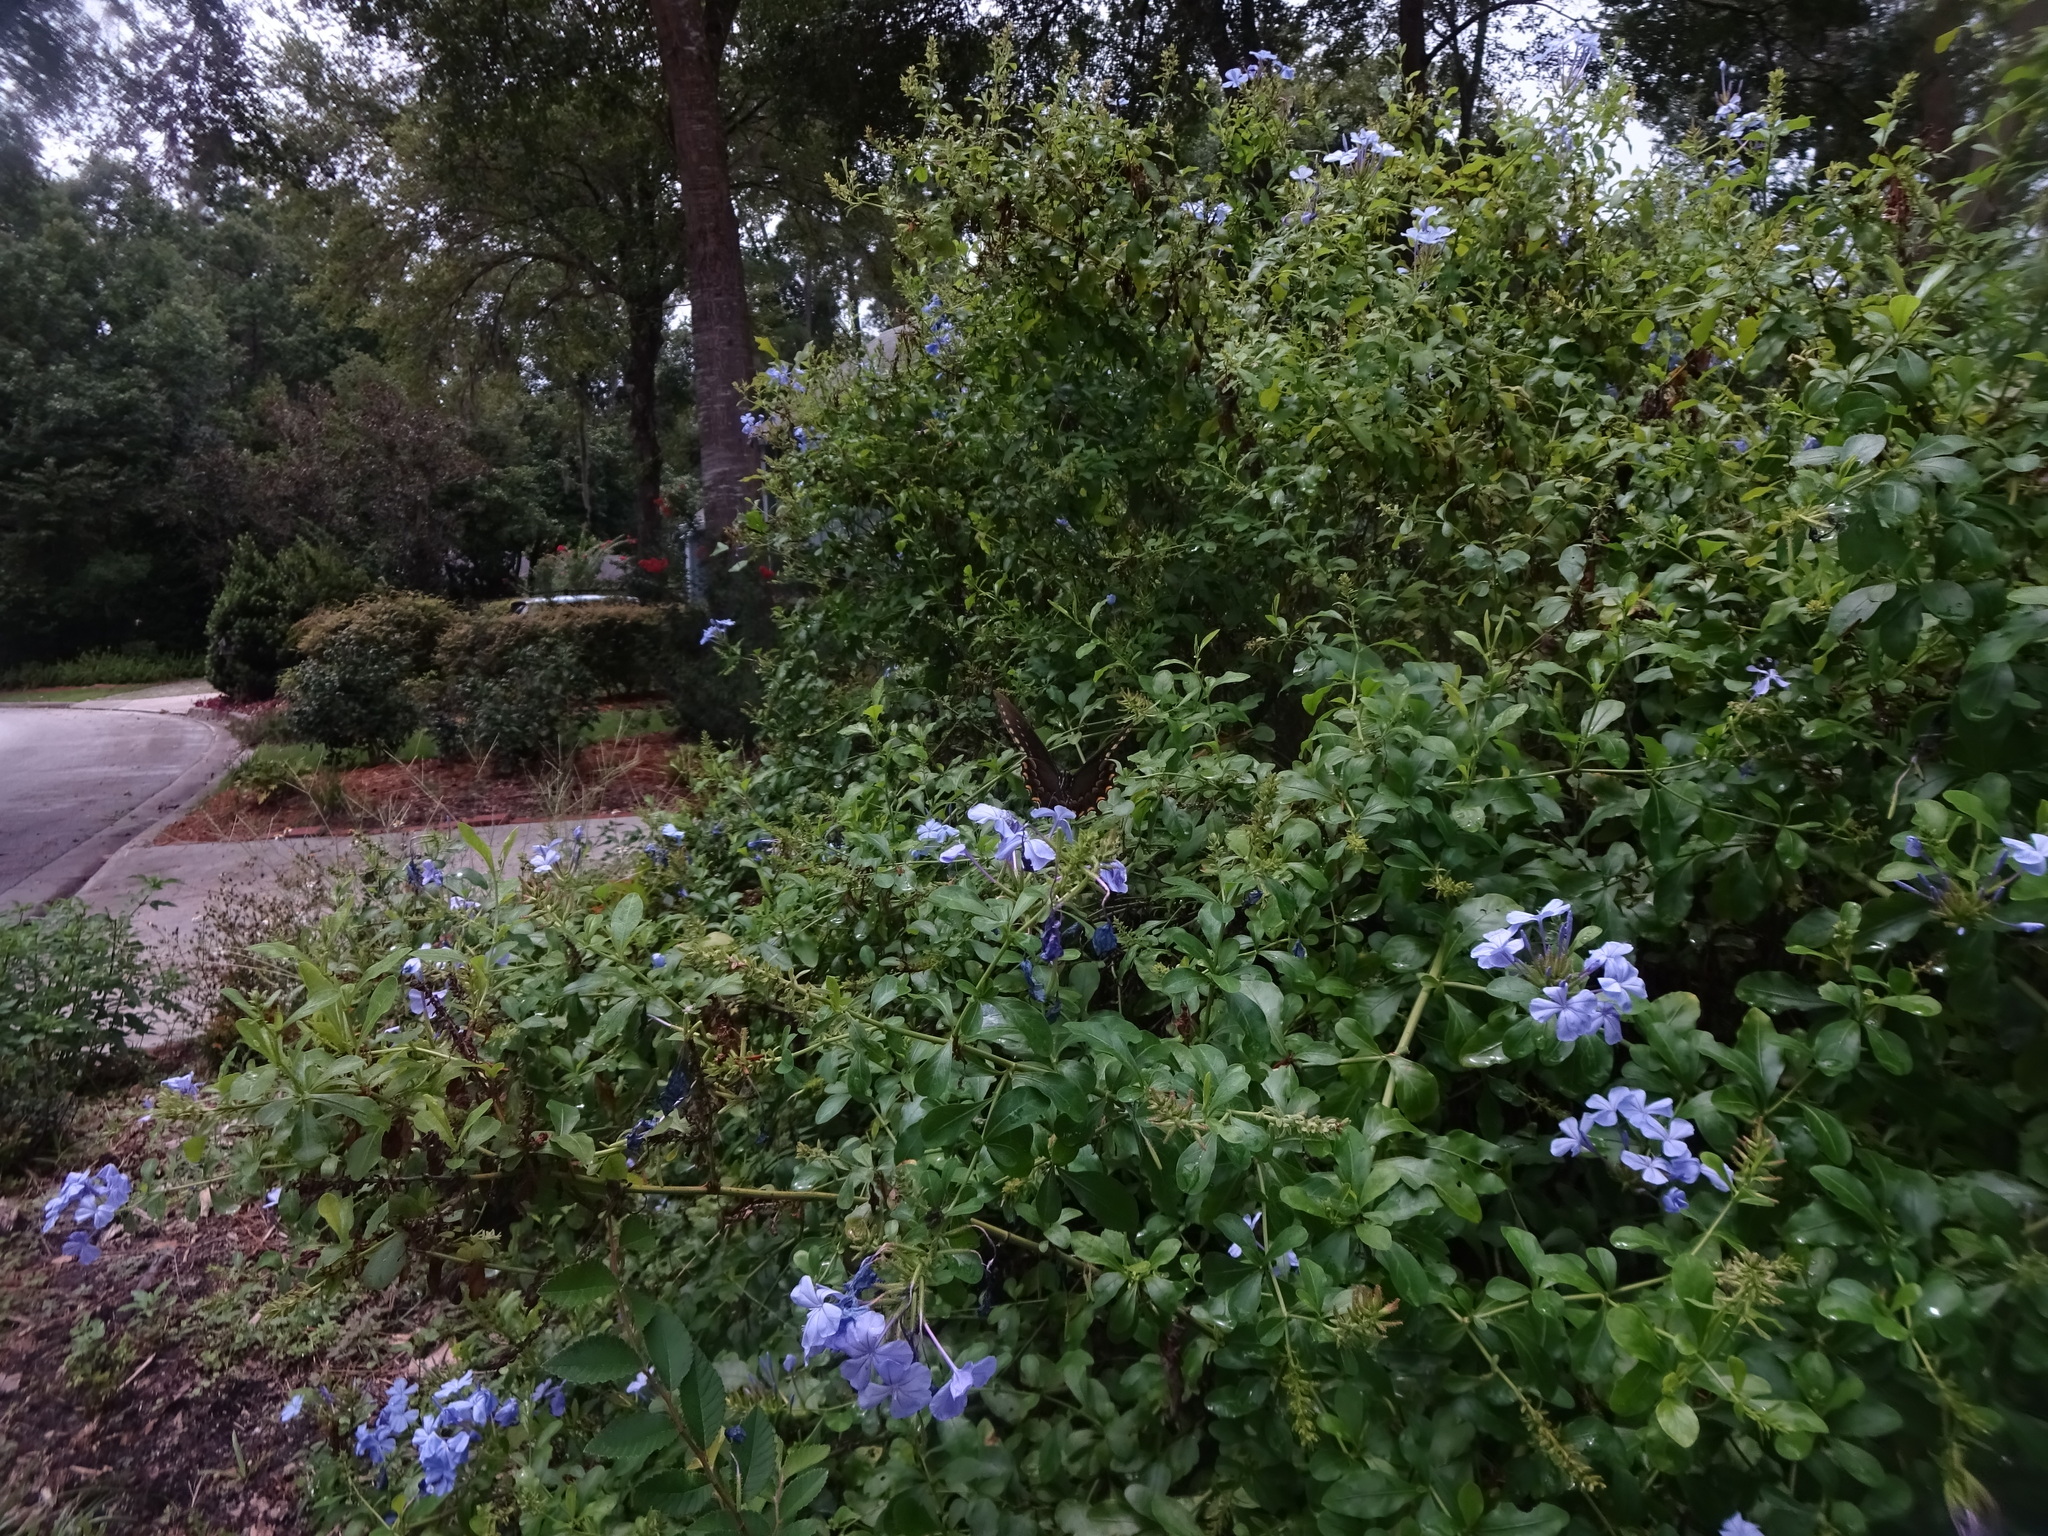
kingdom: Animalia
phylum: Arthropoda
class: Insecta
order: Lepidoptera
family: Papilionidae
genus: Papilio
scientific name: Papilio troilus
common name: Spicebush swallowtail
